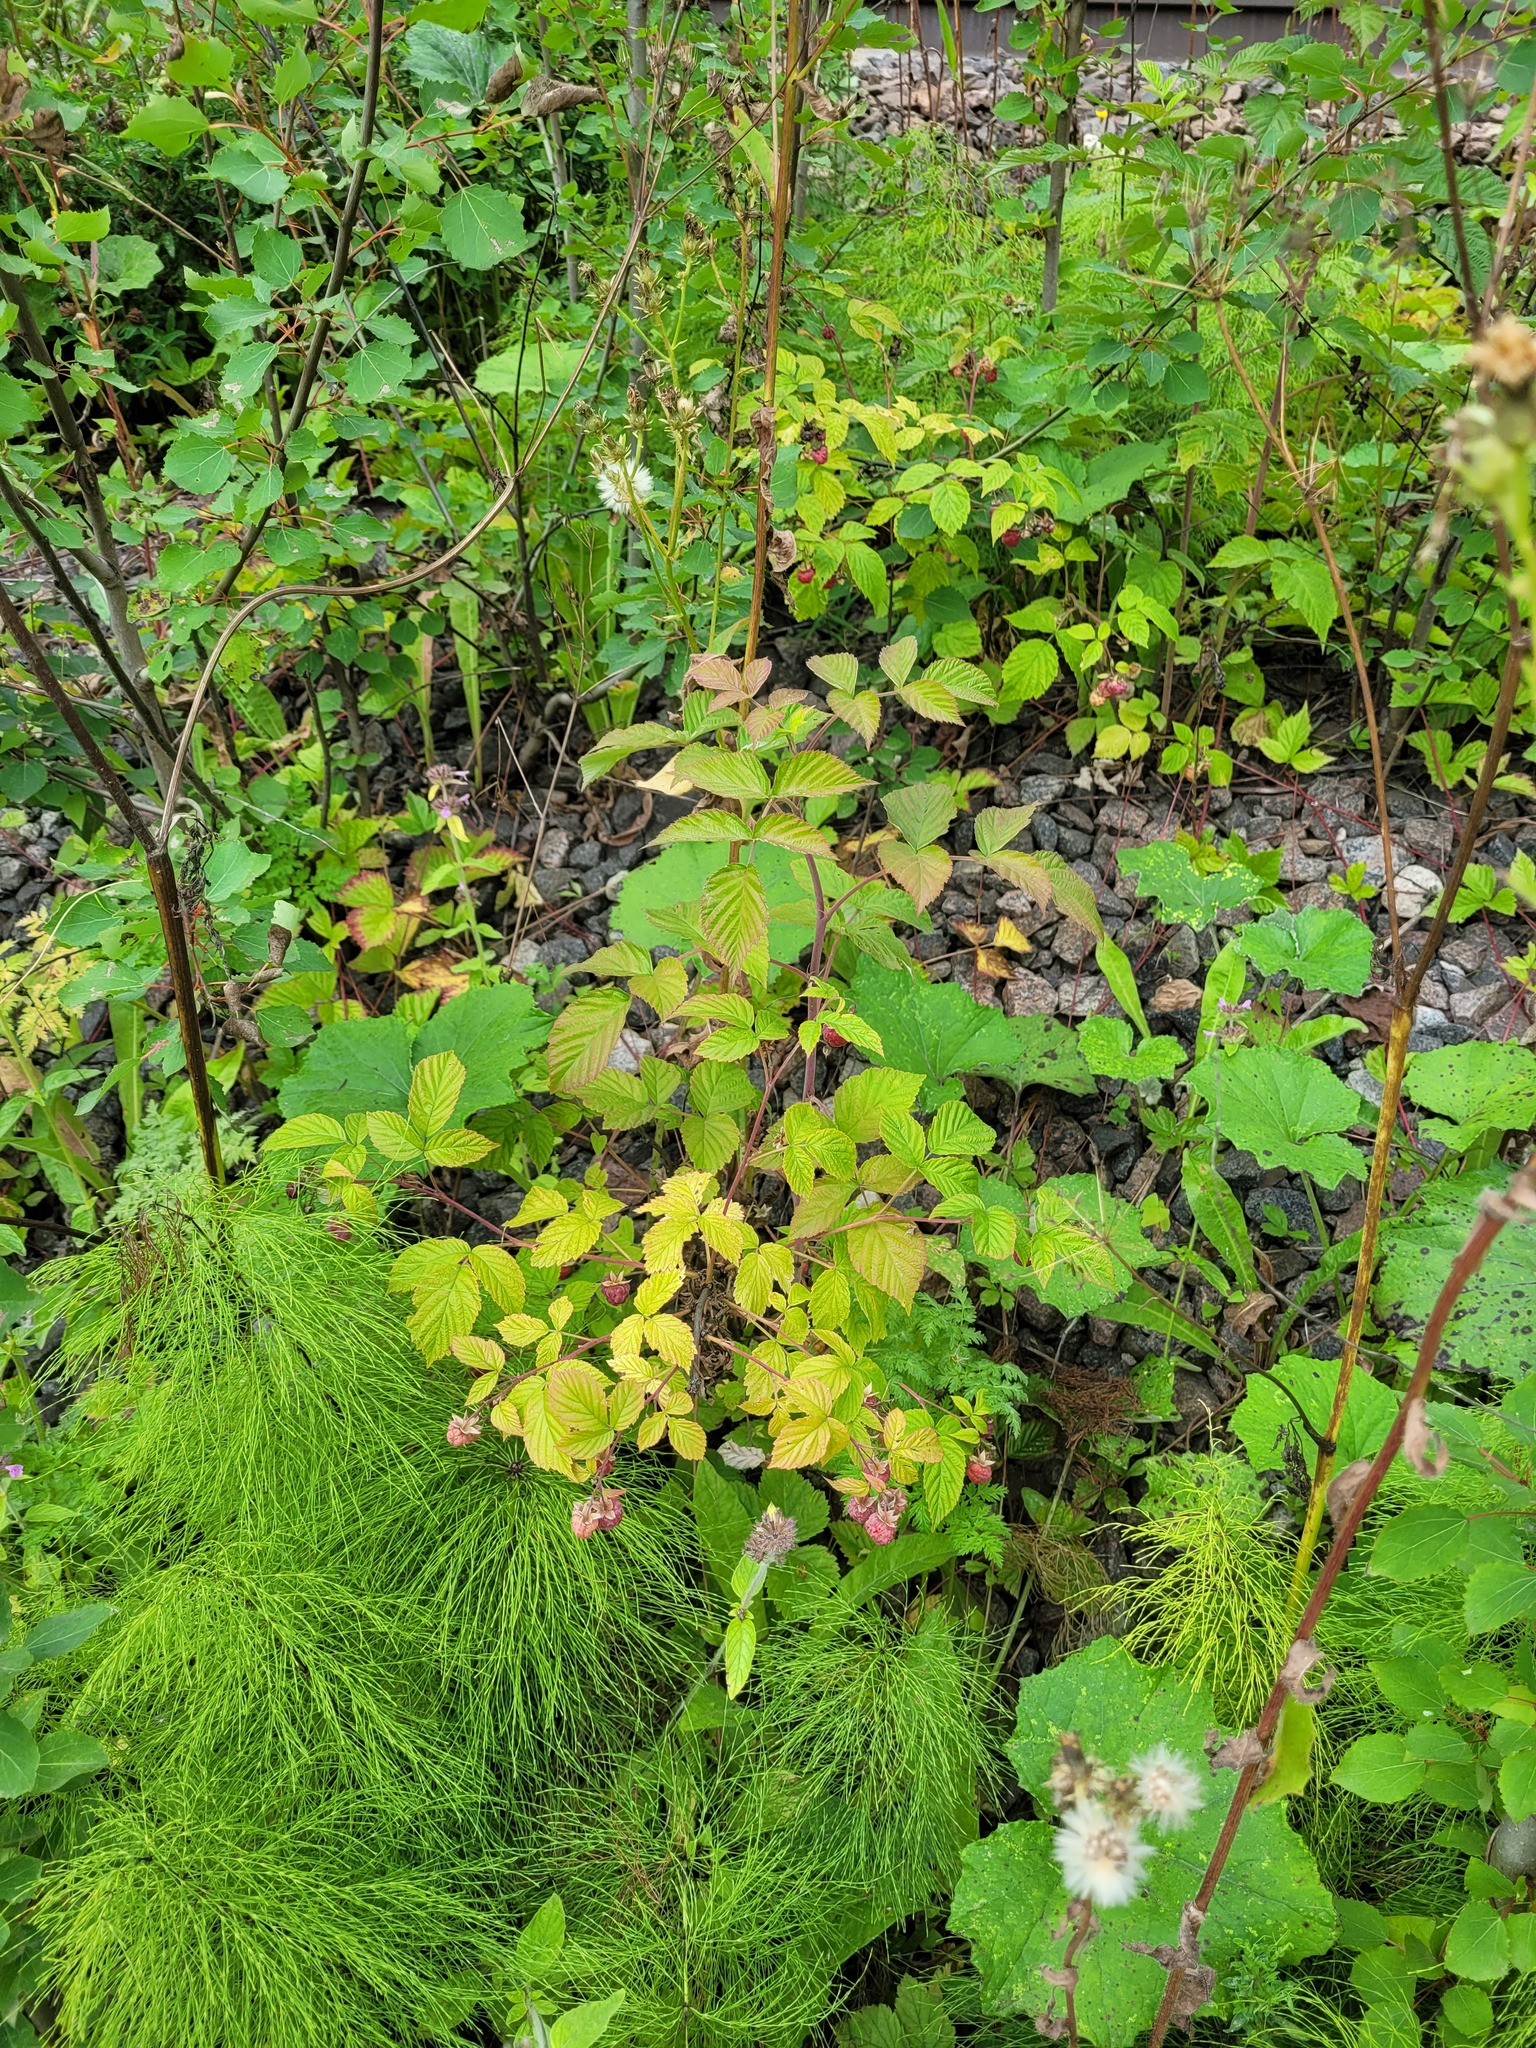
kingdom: Plantae
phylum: Tracheophyta
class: Magnoliopsida
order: Rosales
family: Rosaceae
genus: Rubus
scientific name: Rubus idaeus
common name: Raspberry
